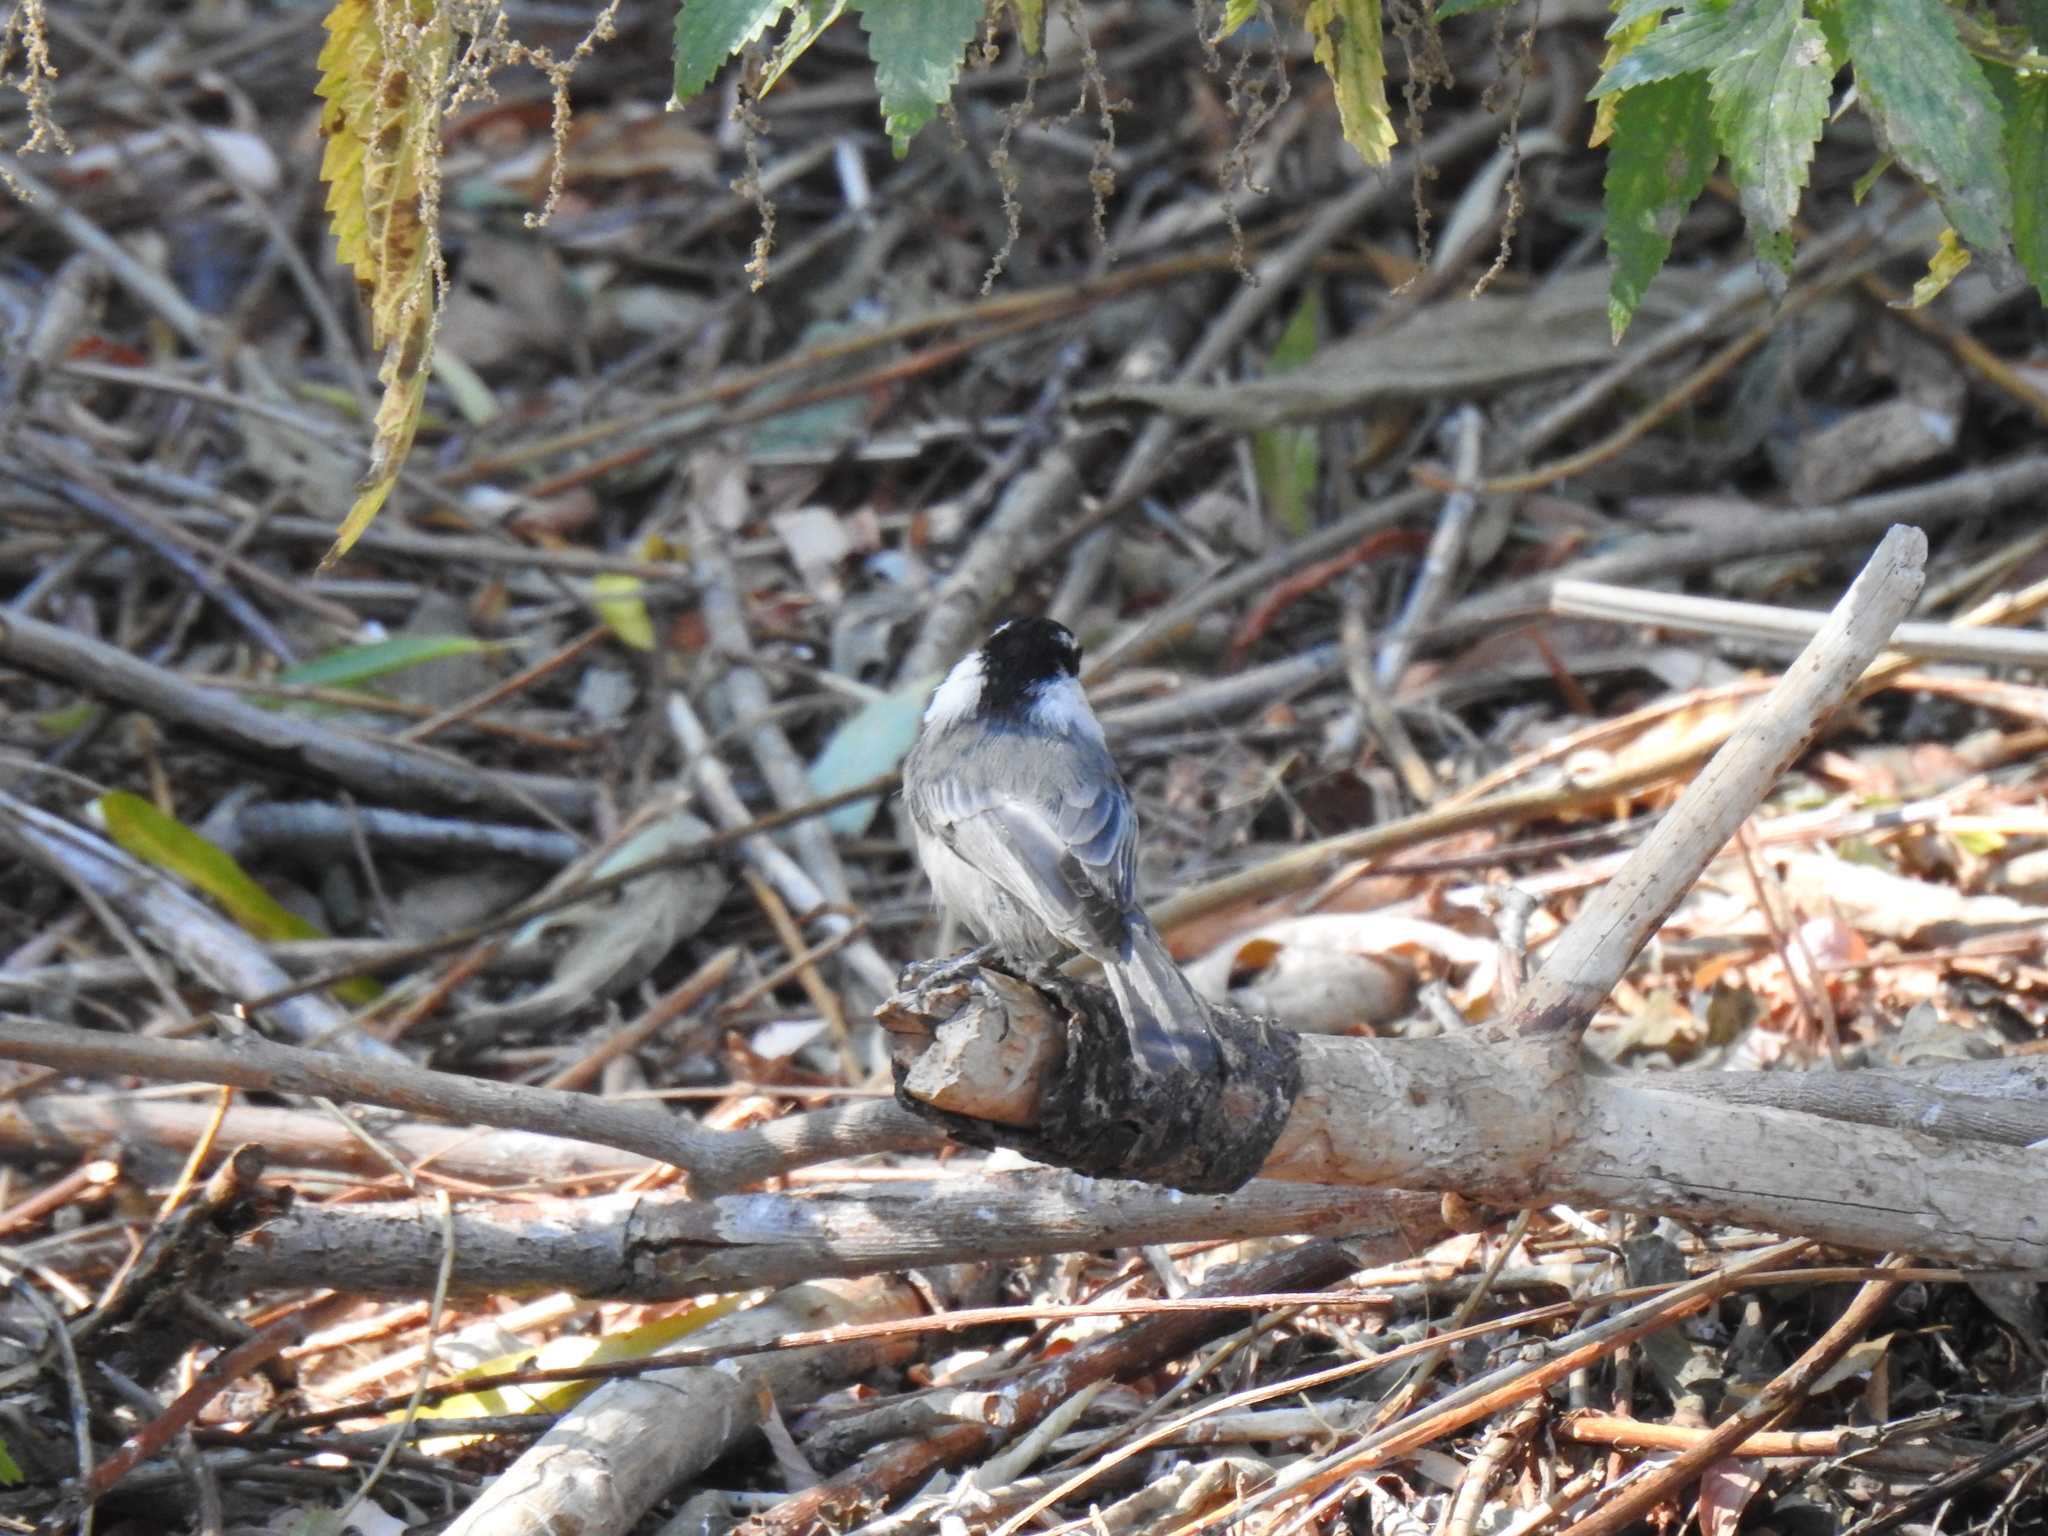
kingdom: Animalia
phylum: Chordata
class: Aves
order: Passeriformes
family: Paridae
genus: Poecile
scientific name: Poecile gambeli
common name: Mountain chickadee
